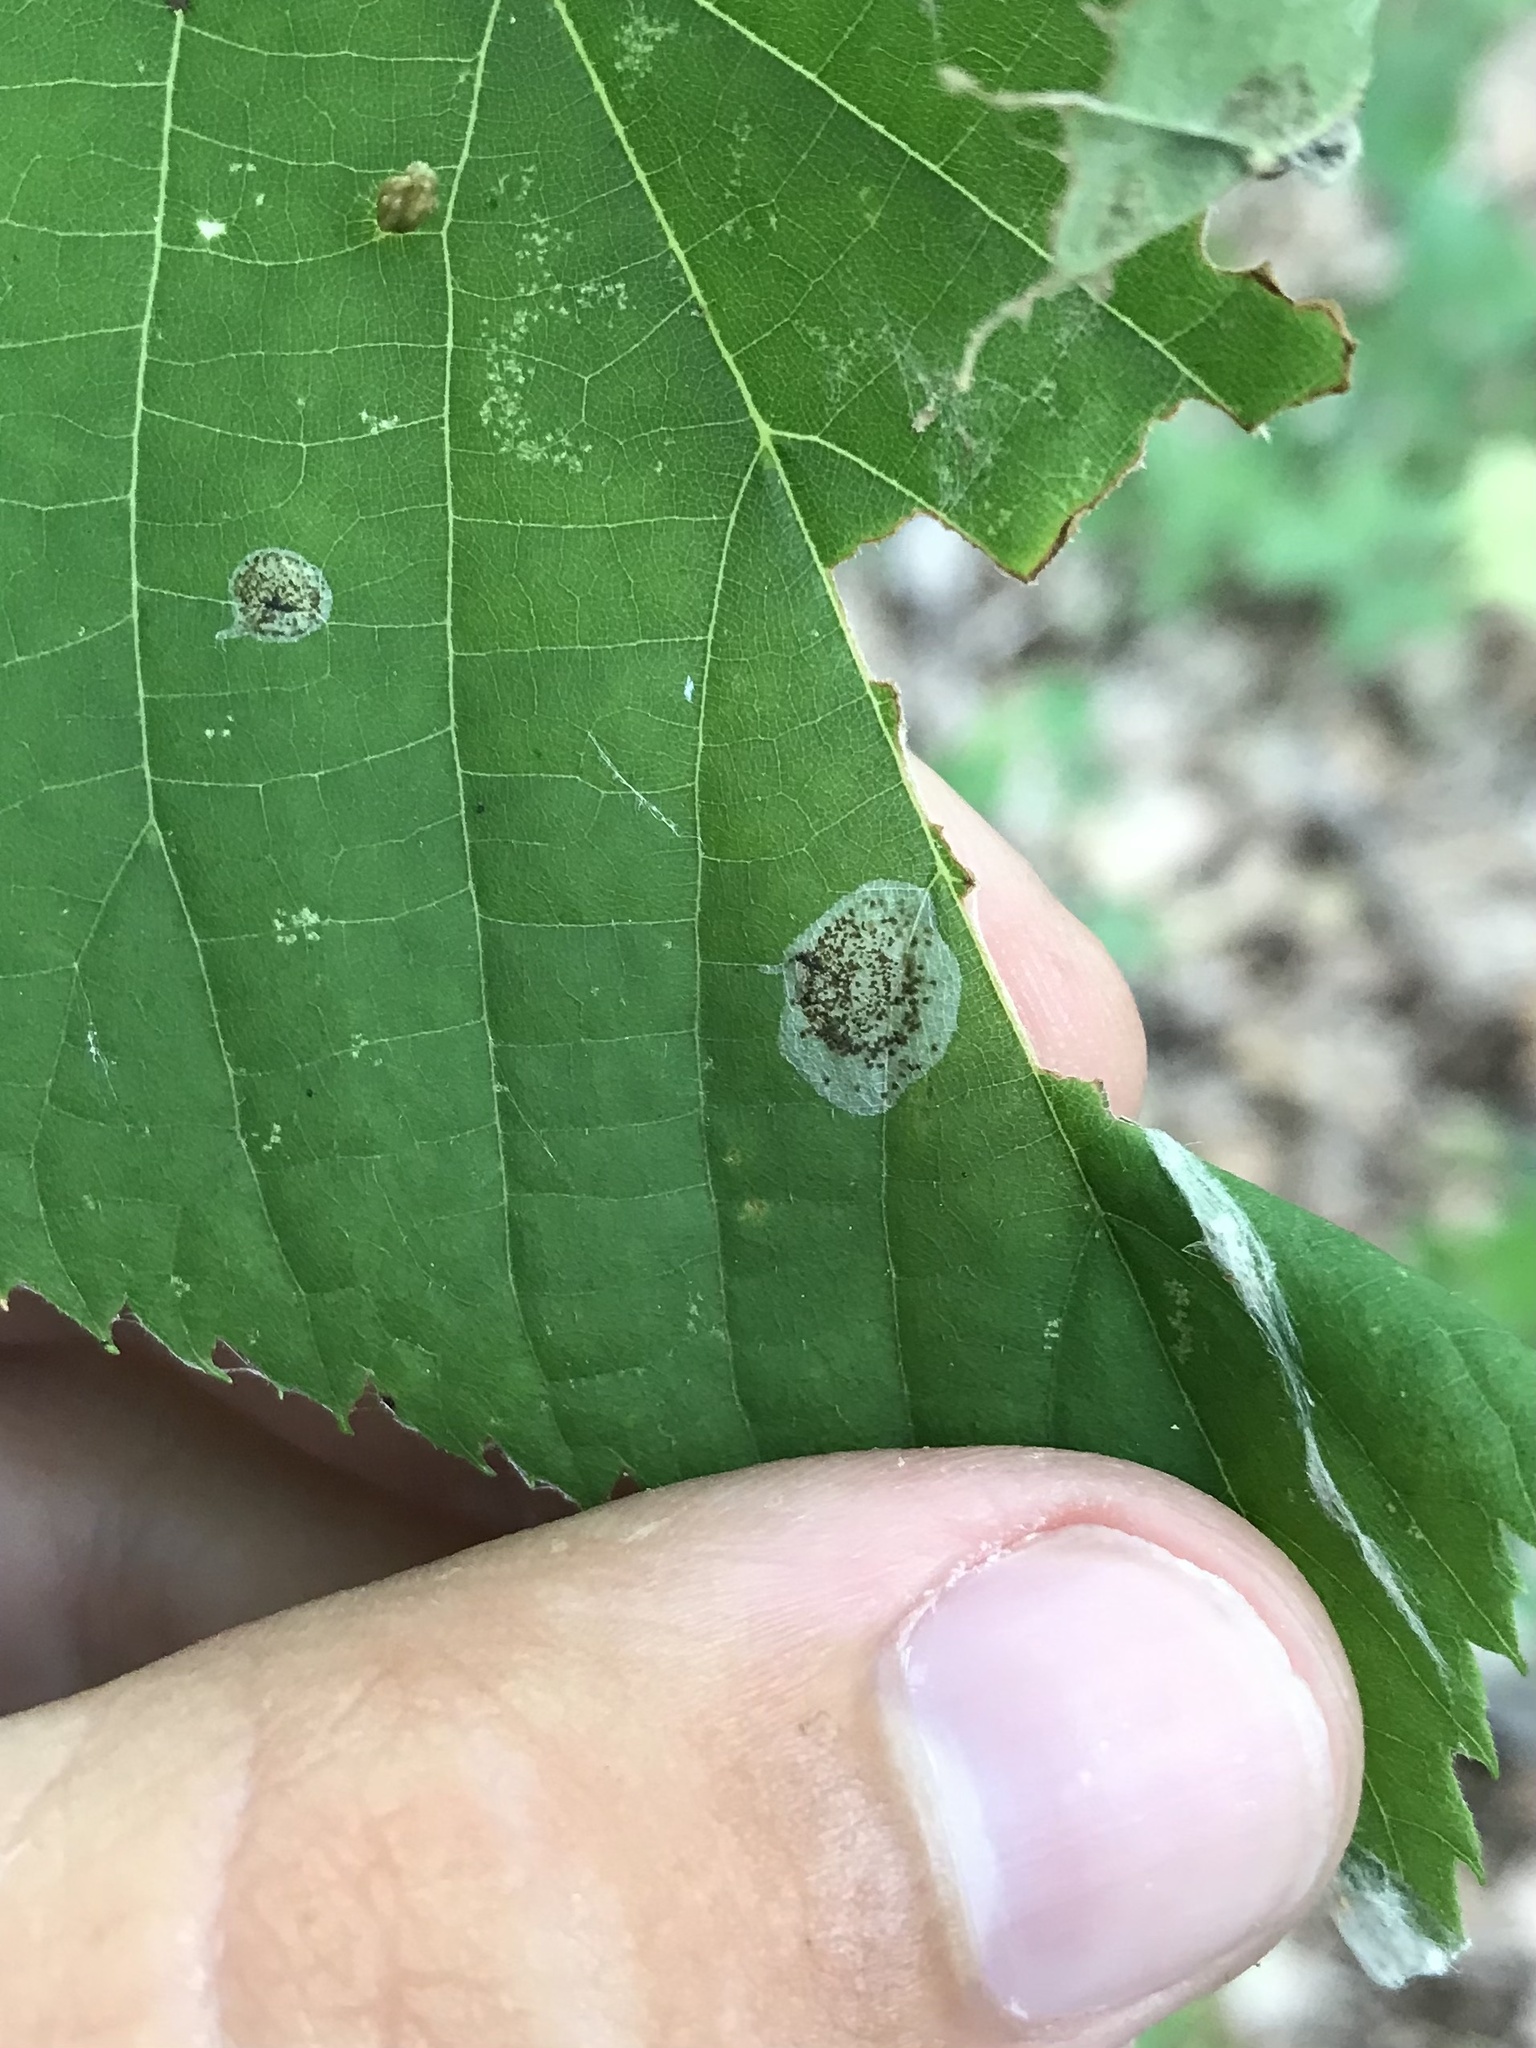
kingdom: Animalia
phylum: Arthropoda
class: Insecta
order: Lepidoptera
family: Gracillariidae
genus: Phyllonorycter
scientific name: Phyllonorycter tiliacella
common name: Basswood round-blotch miner moth
